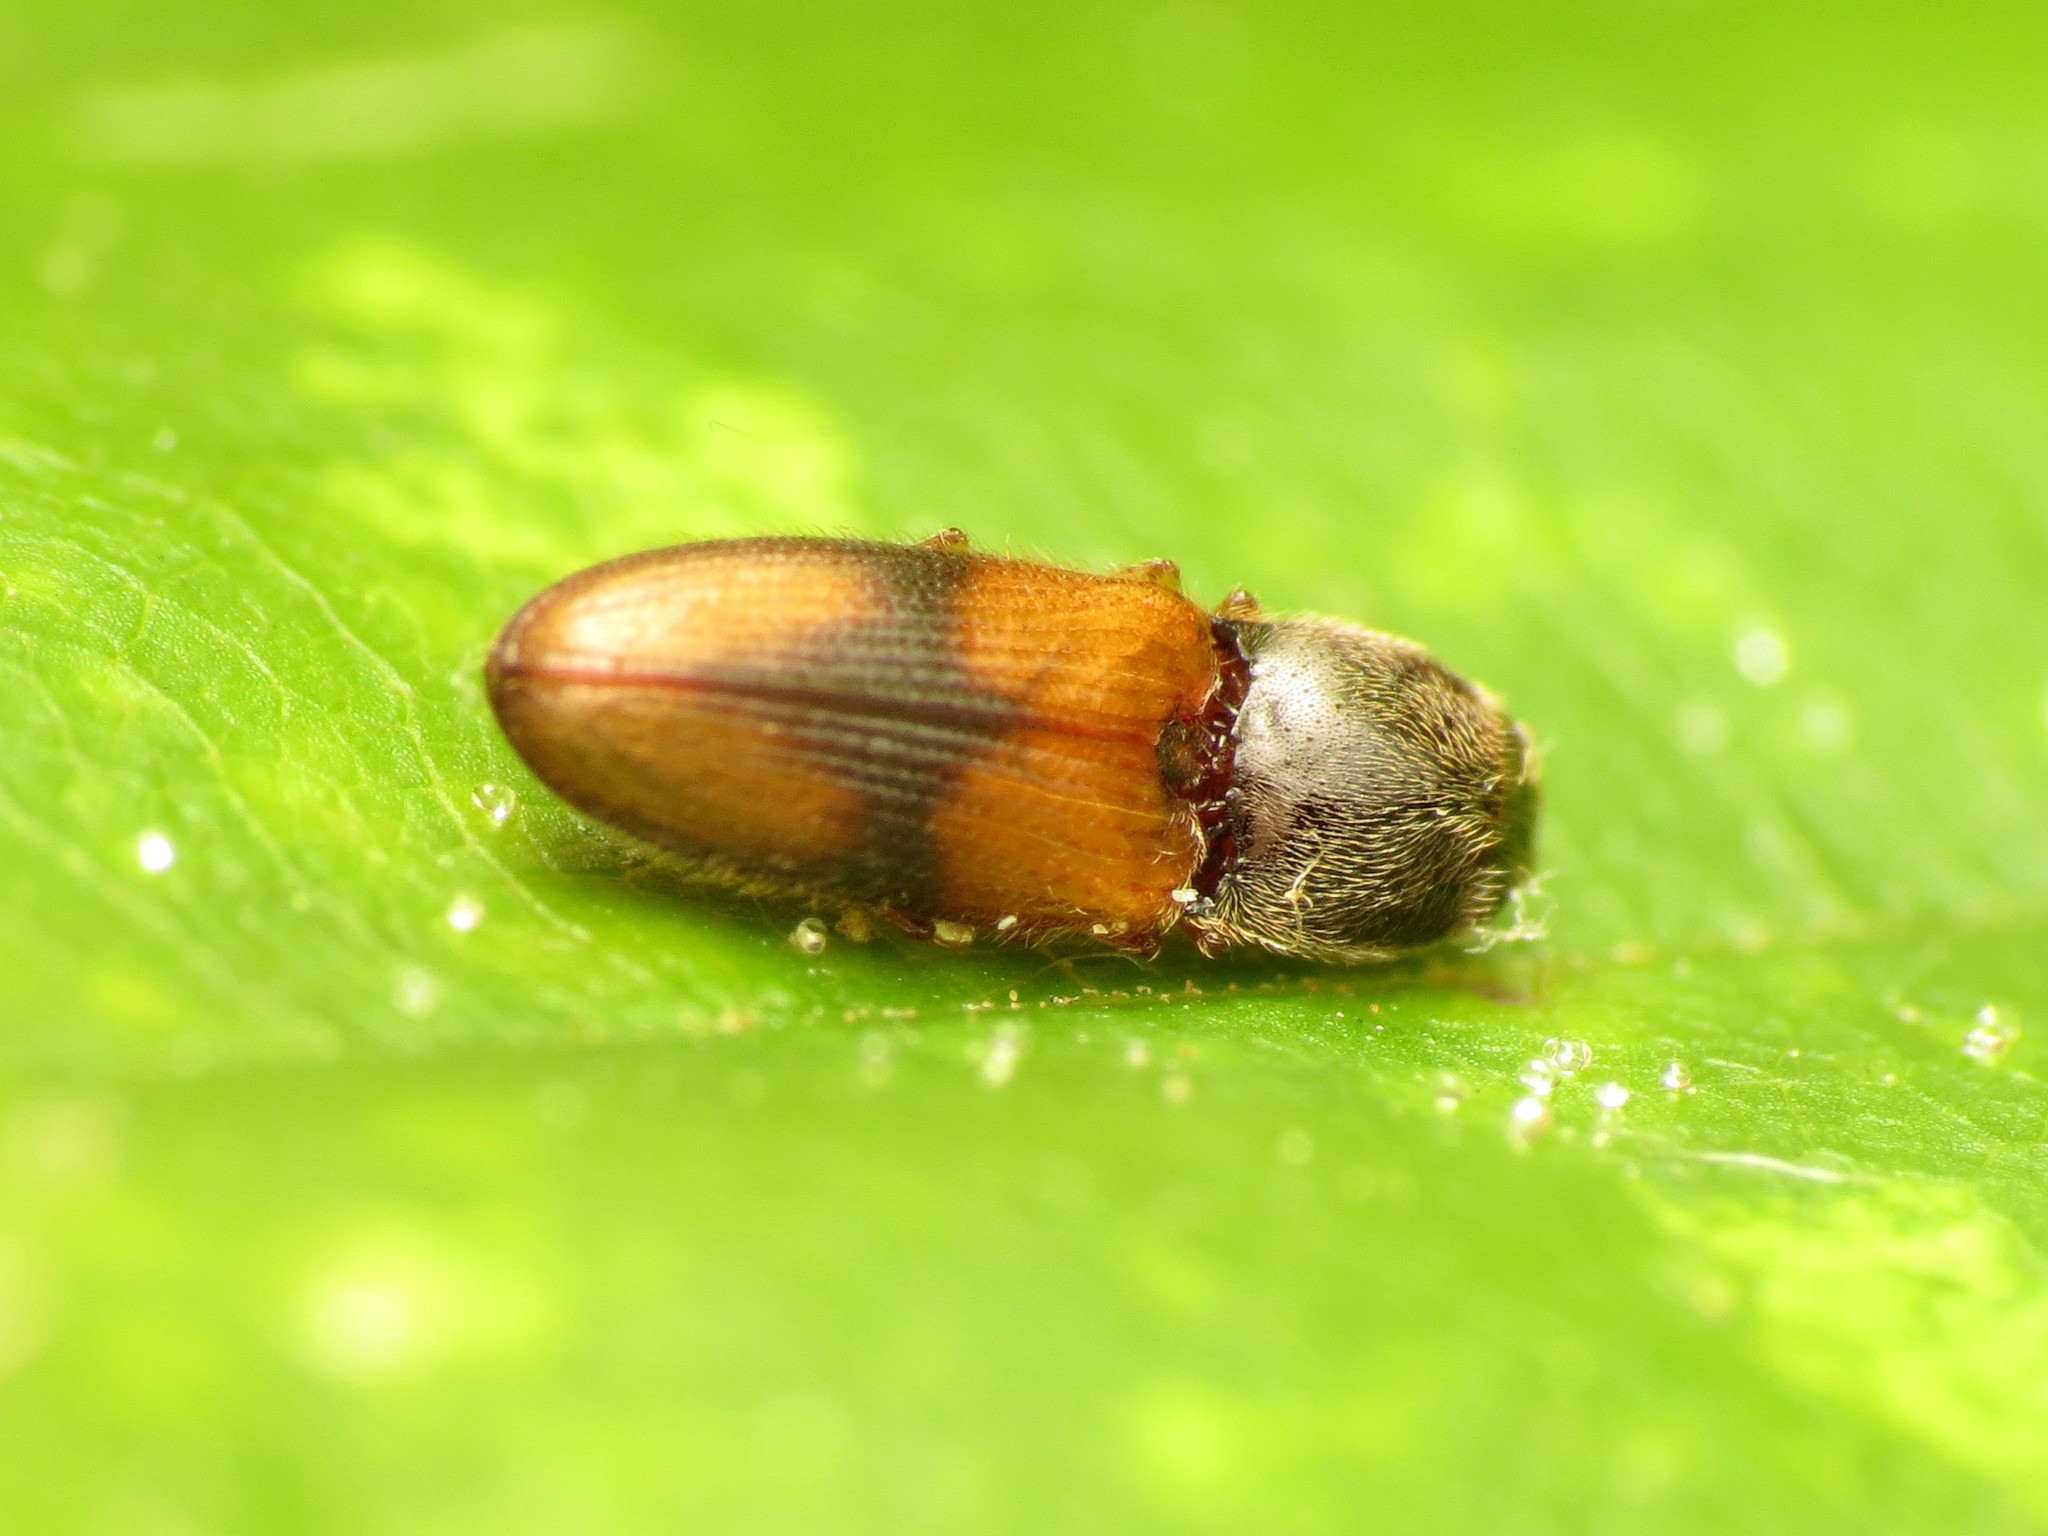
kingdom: Animalia
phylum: Arthropoda
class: Insecta
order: Coleoptera
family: Elateridae
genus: Horistonotus
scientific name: Horistonotus curiatus
